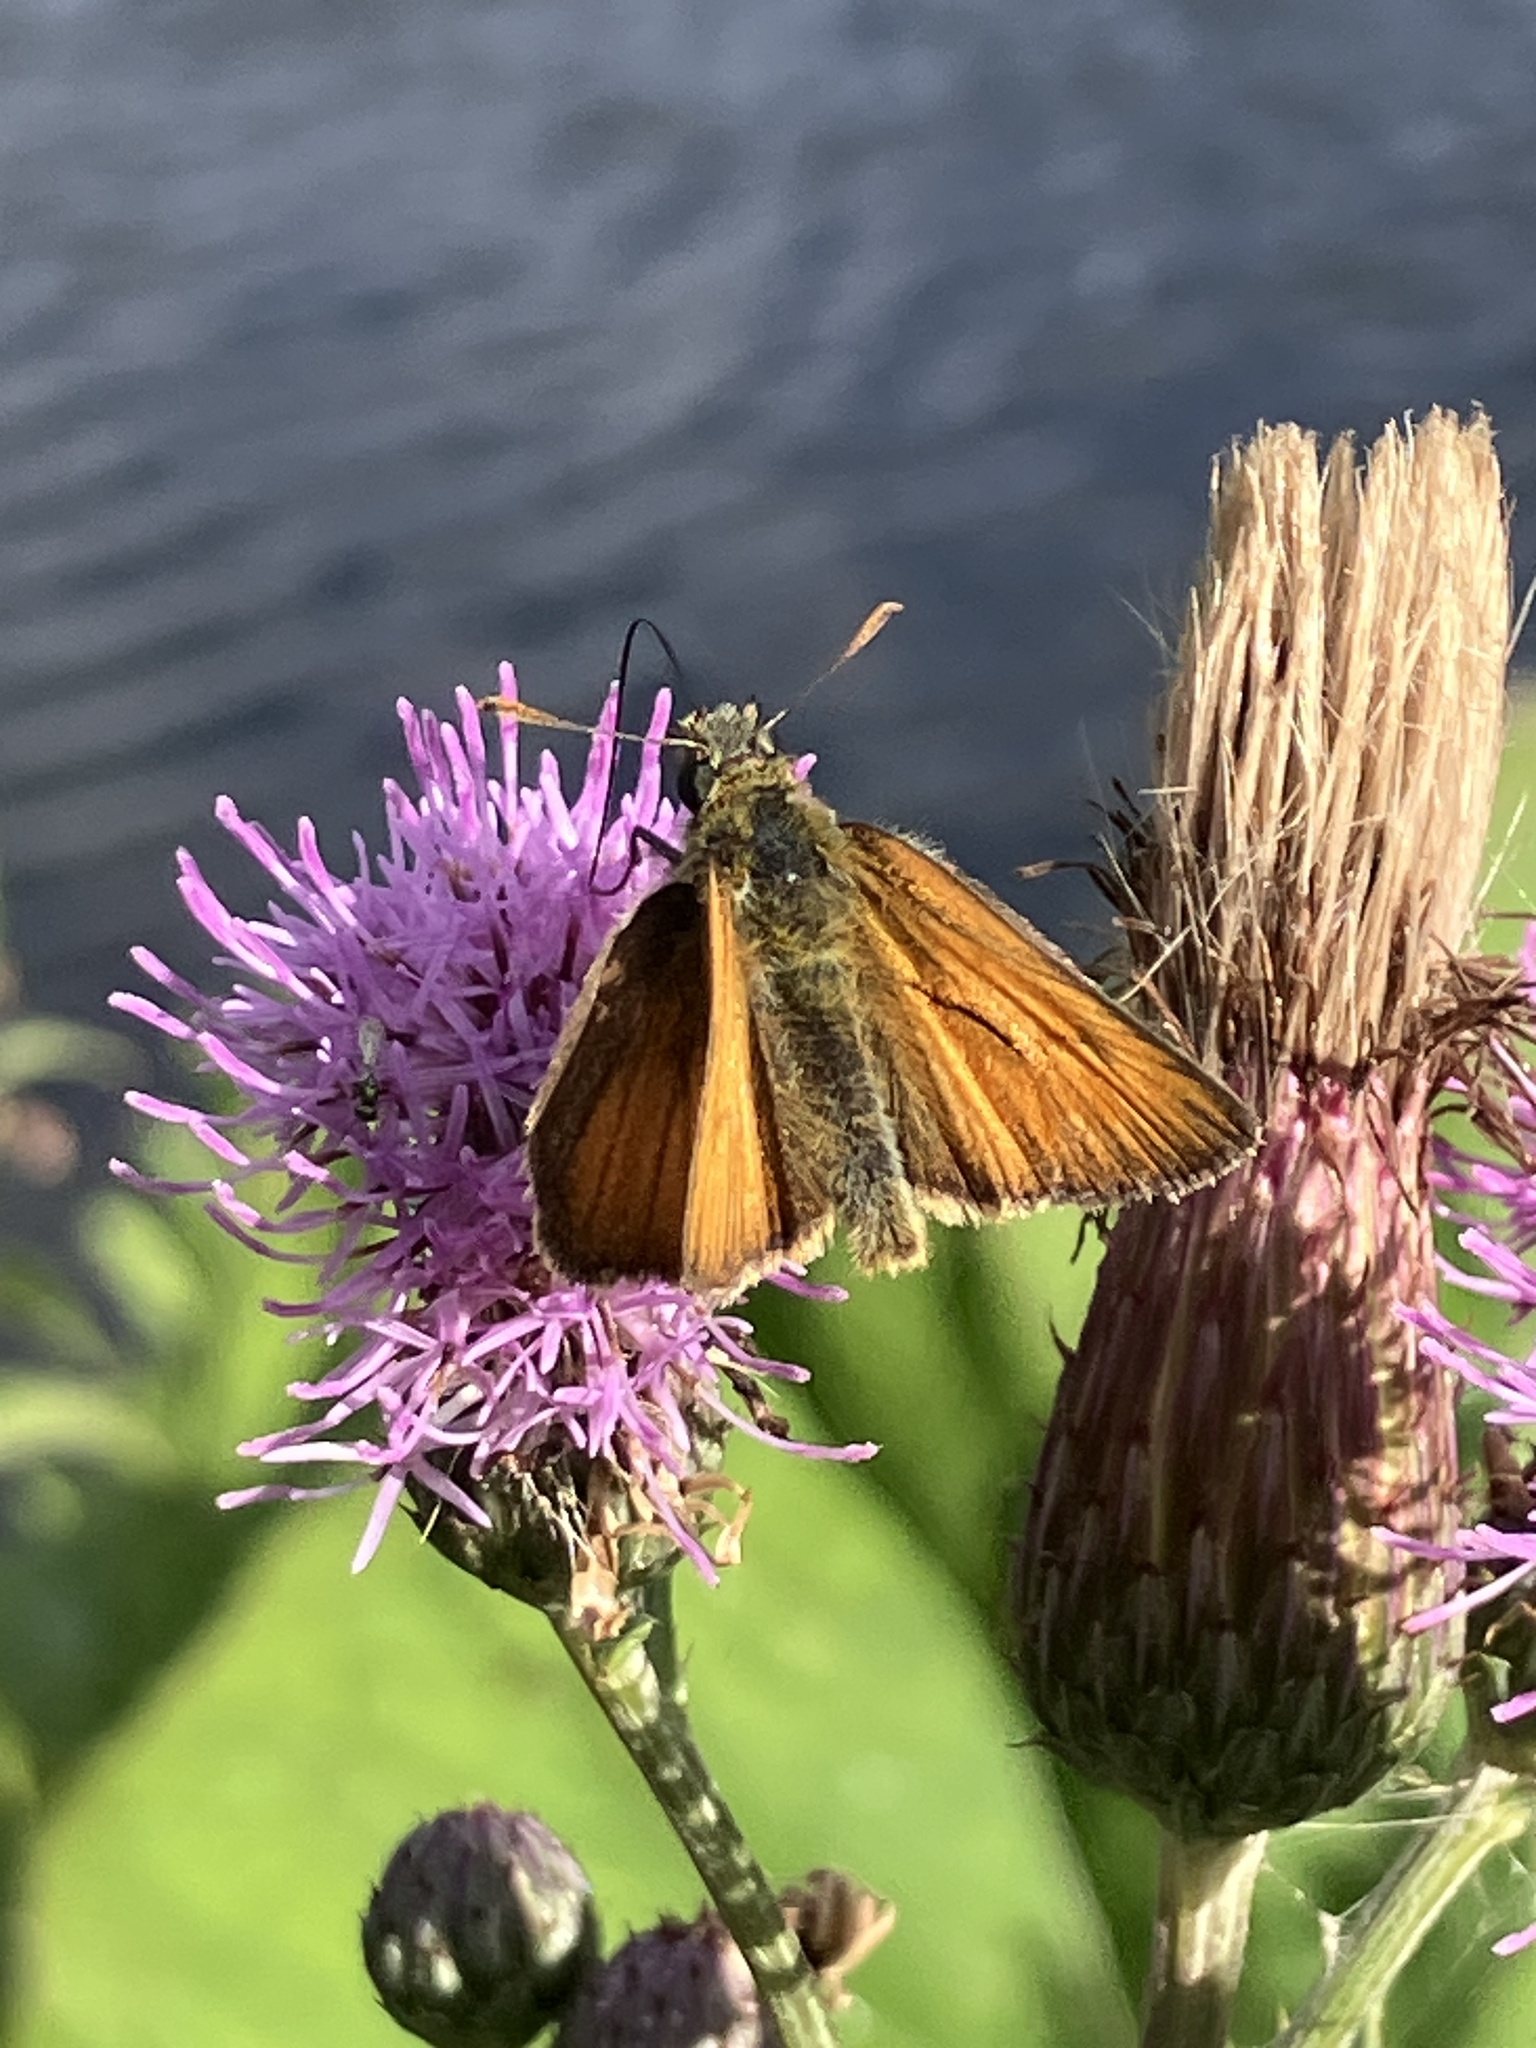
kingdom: Animalia
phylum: Arthropoda
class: Insecta
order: Lepidoptera
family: Hesperiidae
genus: Thymelicus
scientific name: Thymelicus sylvestris
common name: Small skipper
